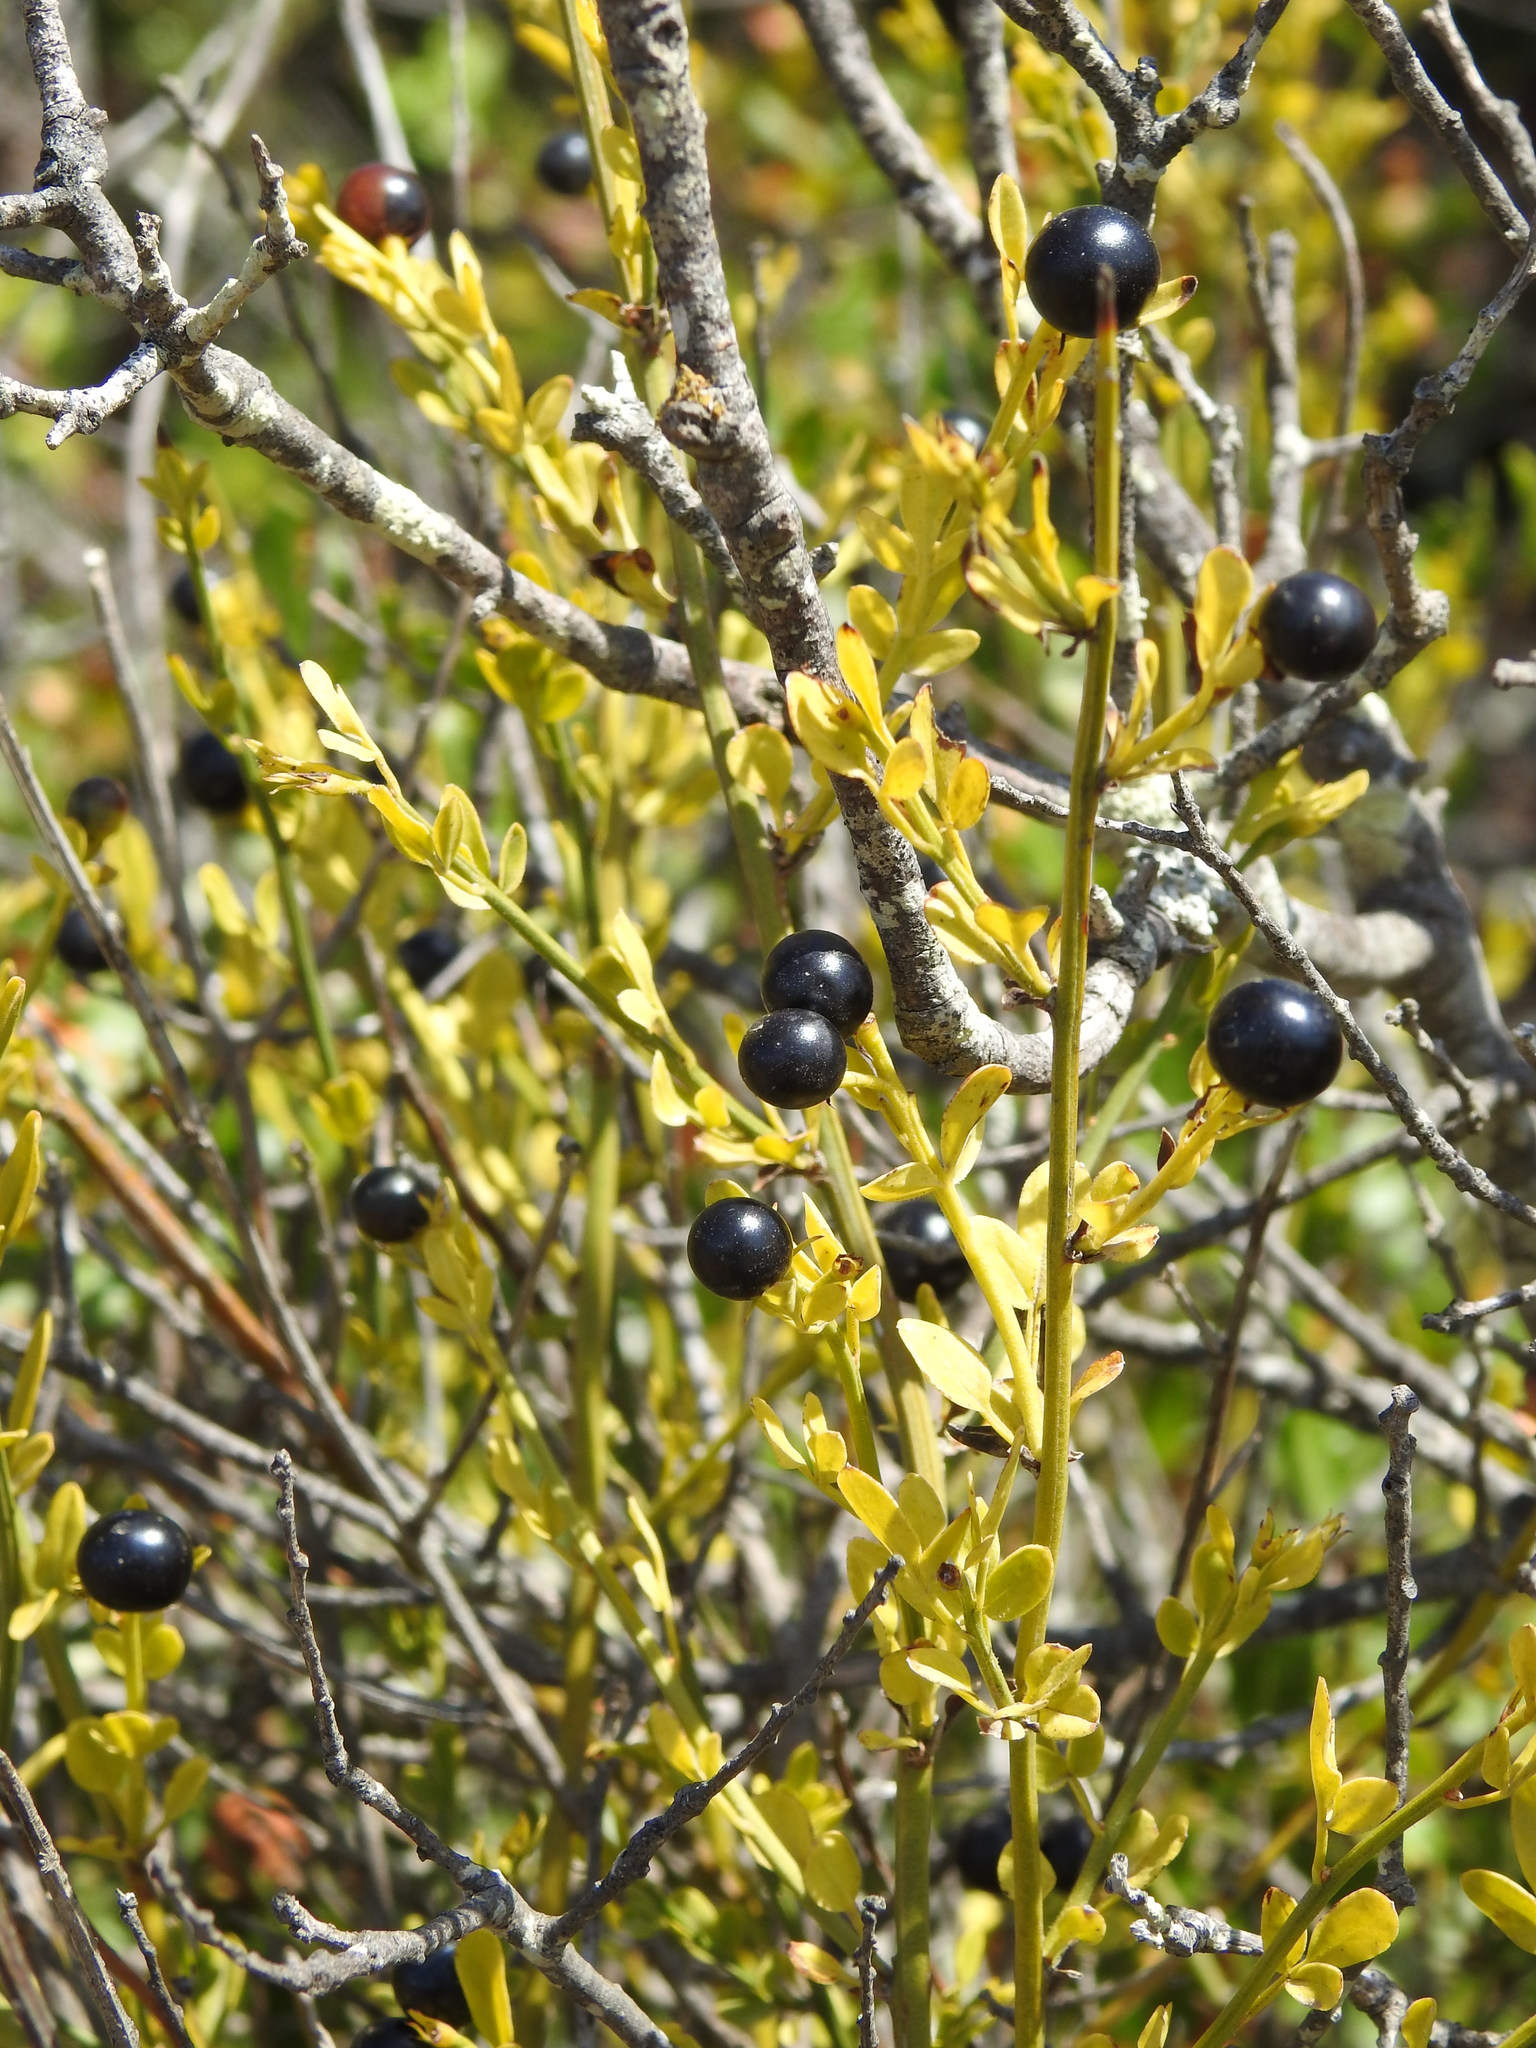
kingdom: Plantae
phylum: Tracheophyta
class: Magnoliopsida
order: Lamiales
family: Oleaceae
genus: Chrysojasminum
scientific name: Chrysojasminum fruticans
